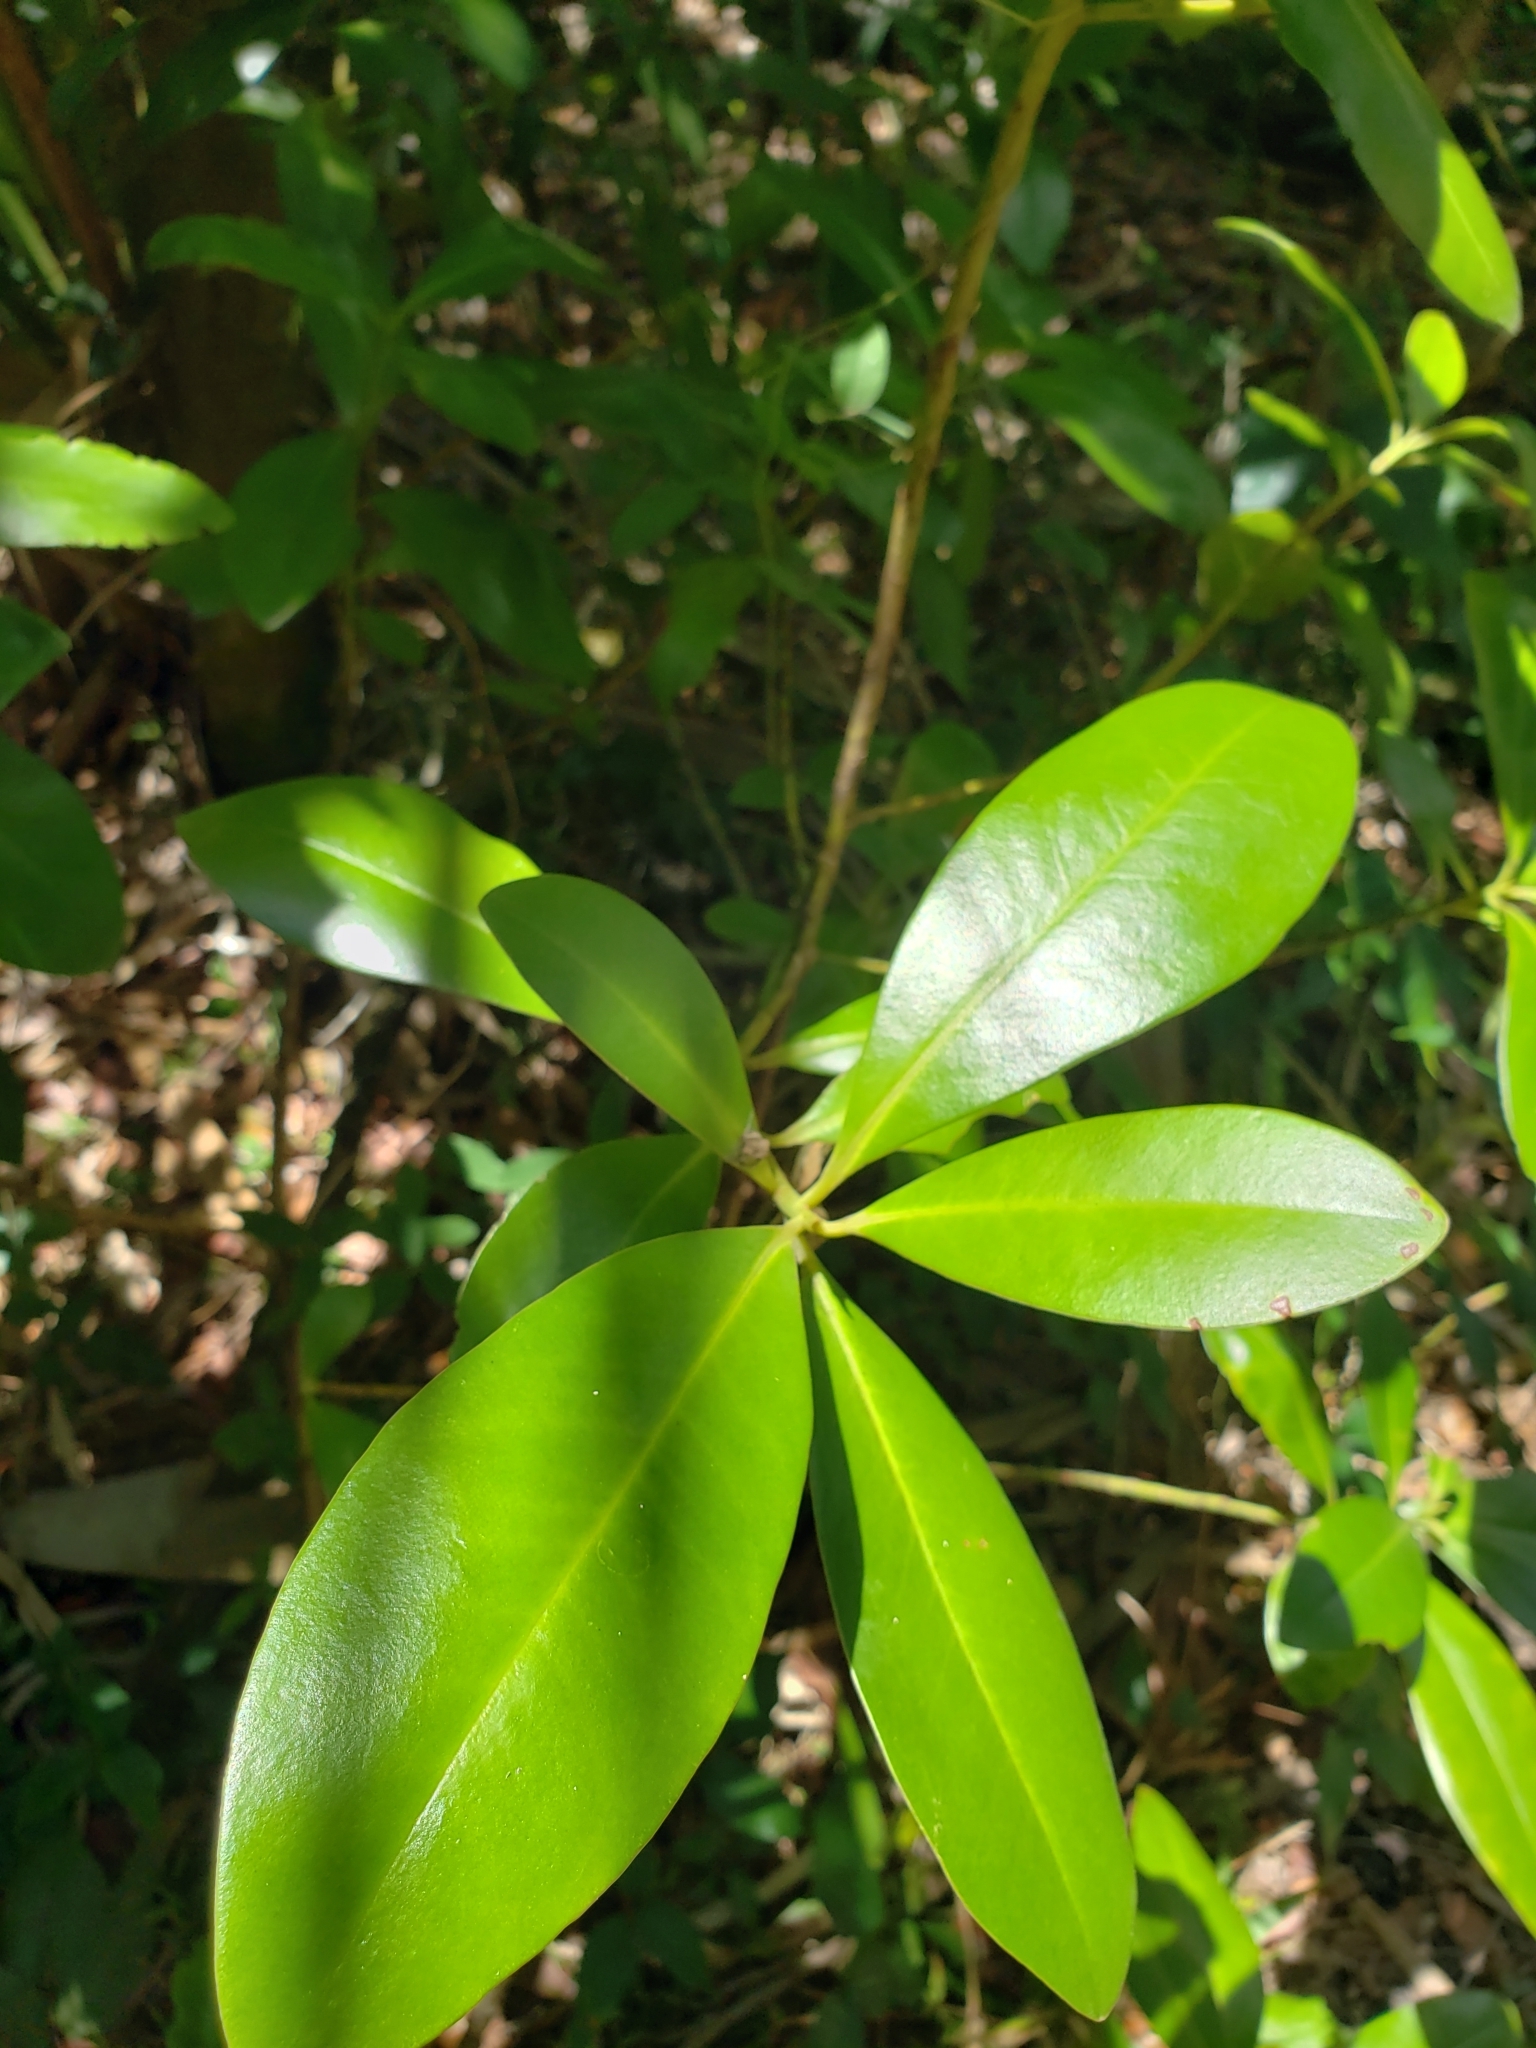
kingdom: Plantae
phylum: Tracheophyta
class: Magnoliopsida
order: Ericales
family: Primulaceae
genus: Myrsine
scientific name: Myrsine floridana
